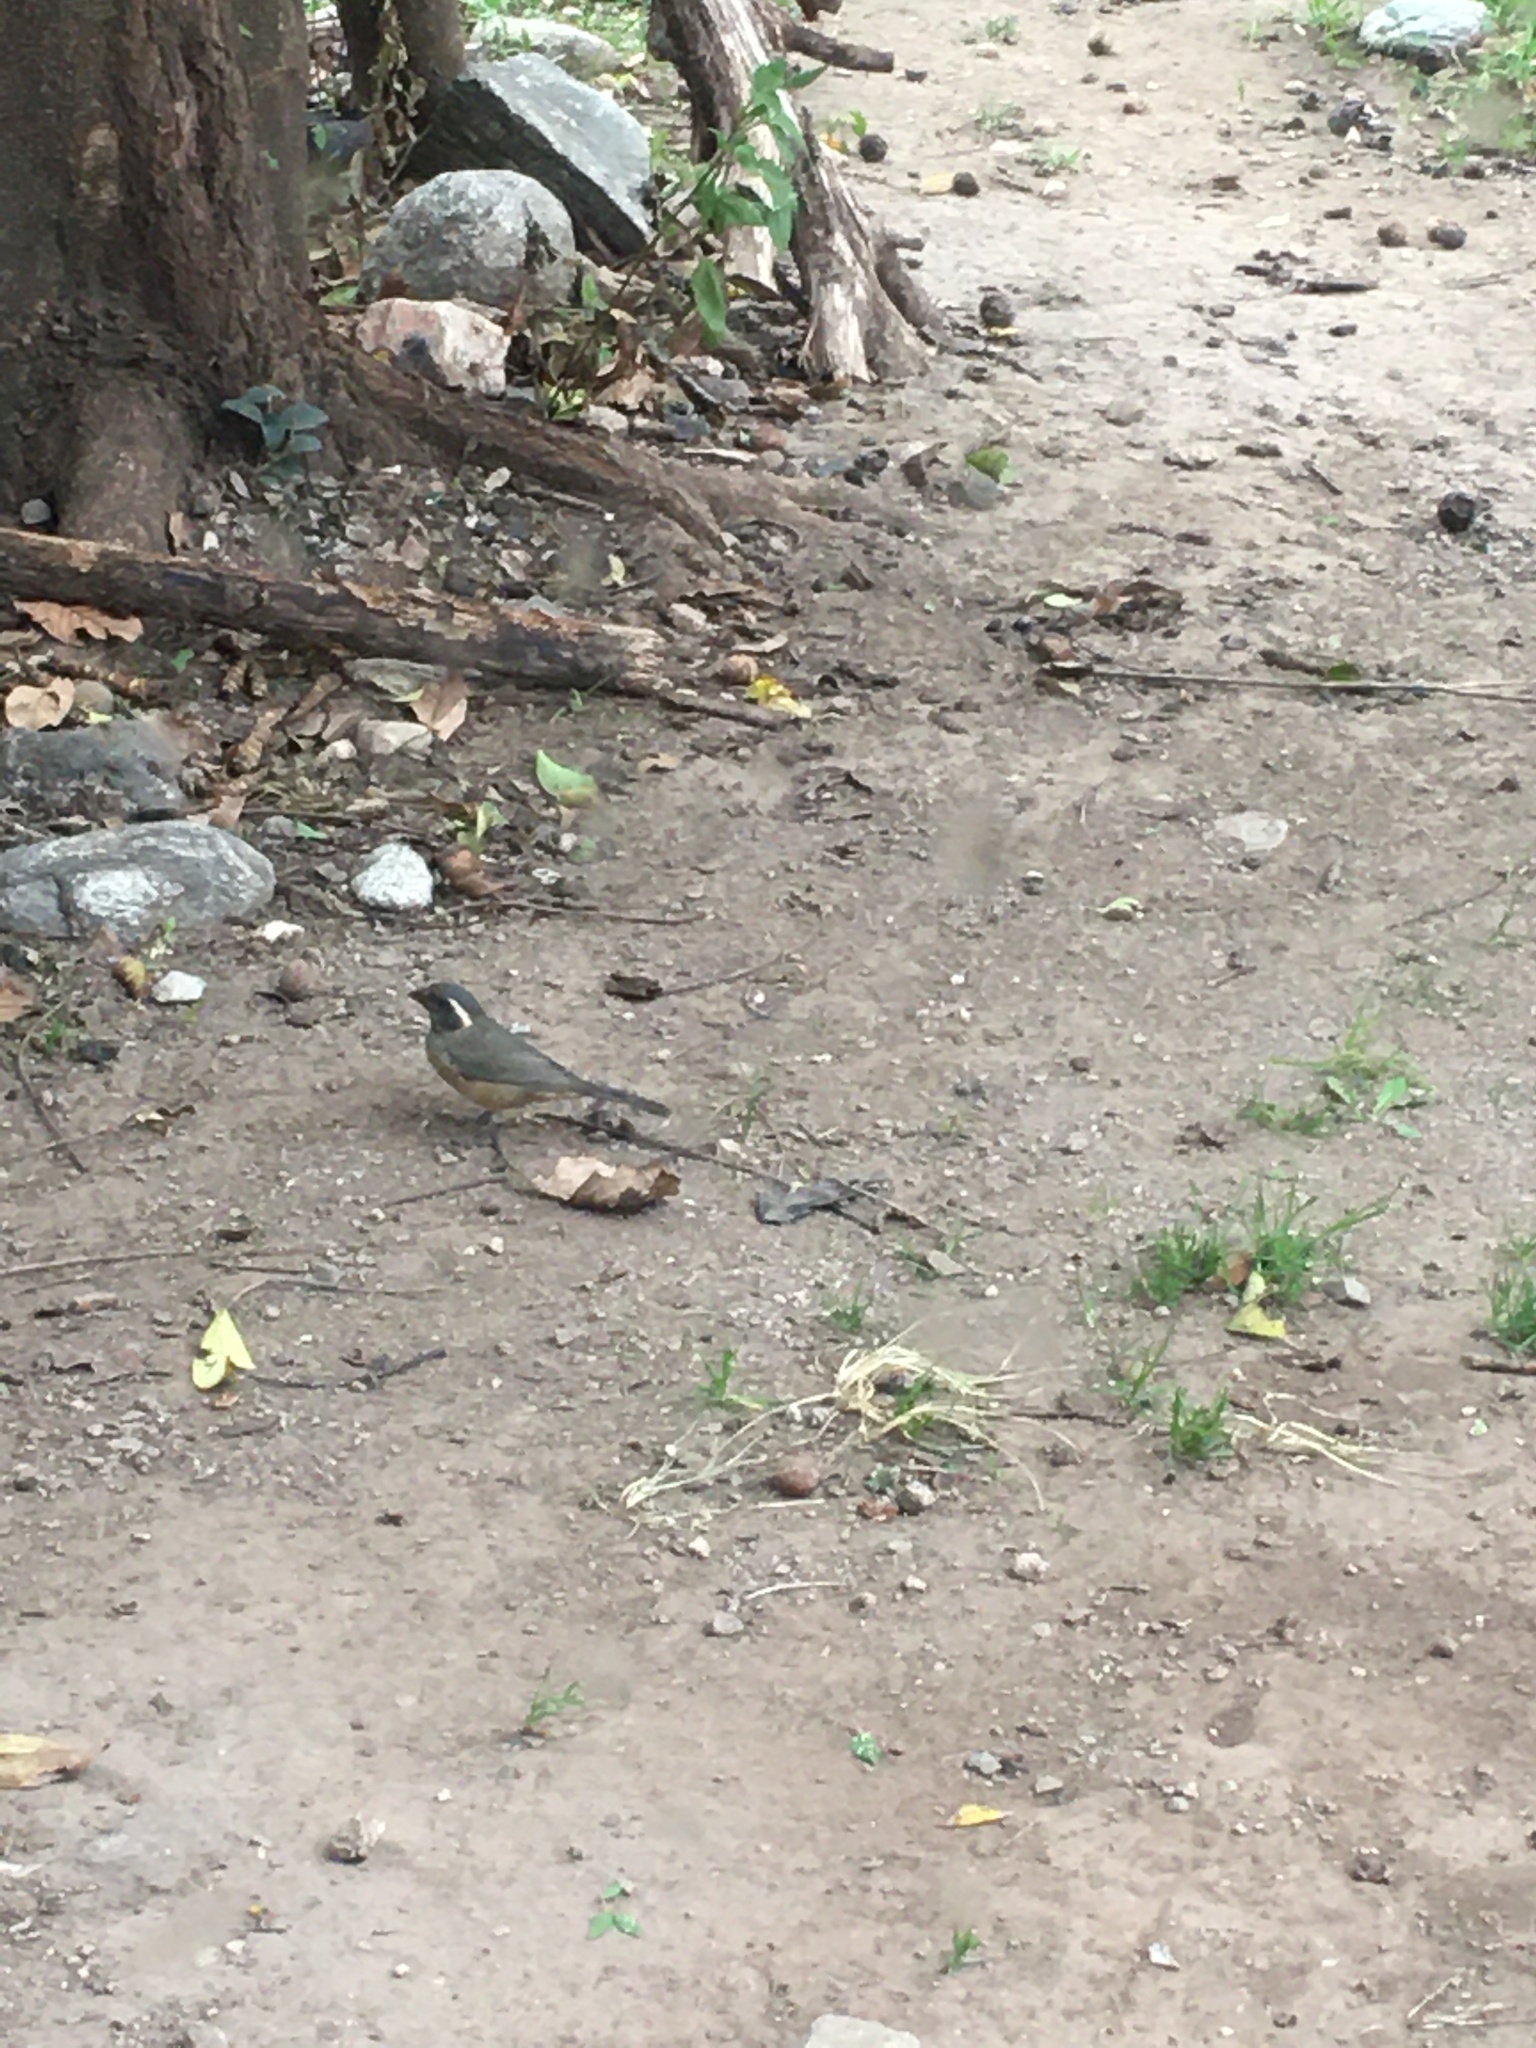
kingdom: Animalia
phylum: Chordata
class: Aves
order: Passeriformes
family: Thraupidae
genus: Saltator
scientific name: Saltator aurantiirostris
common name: Golden-billed saltator
